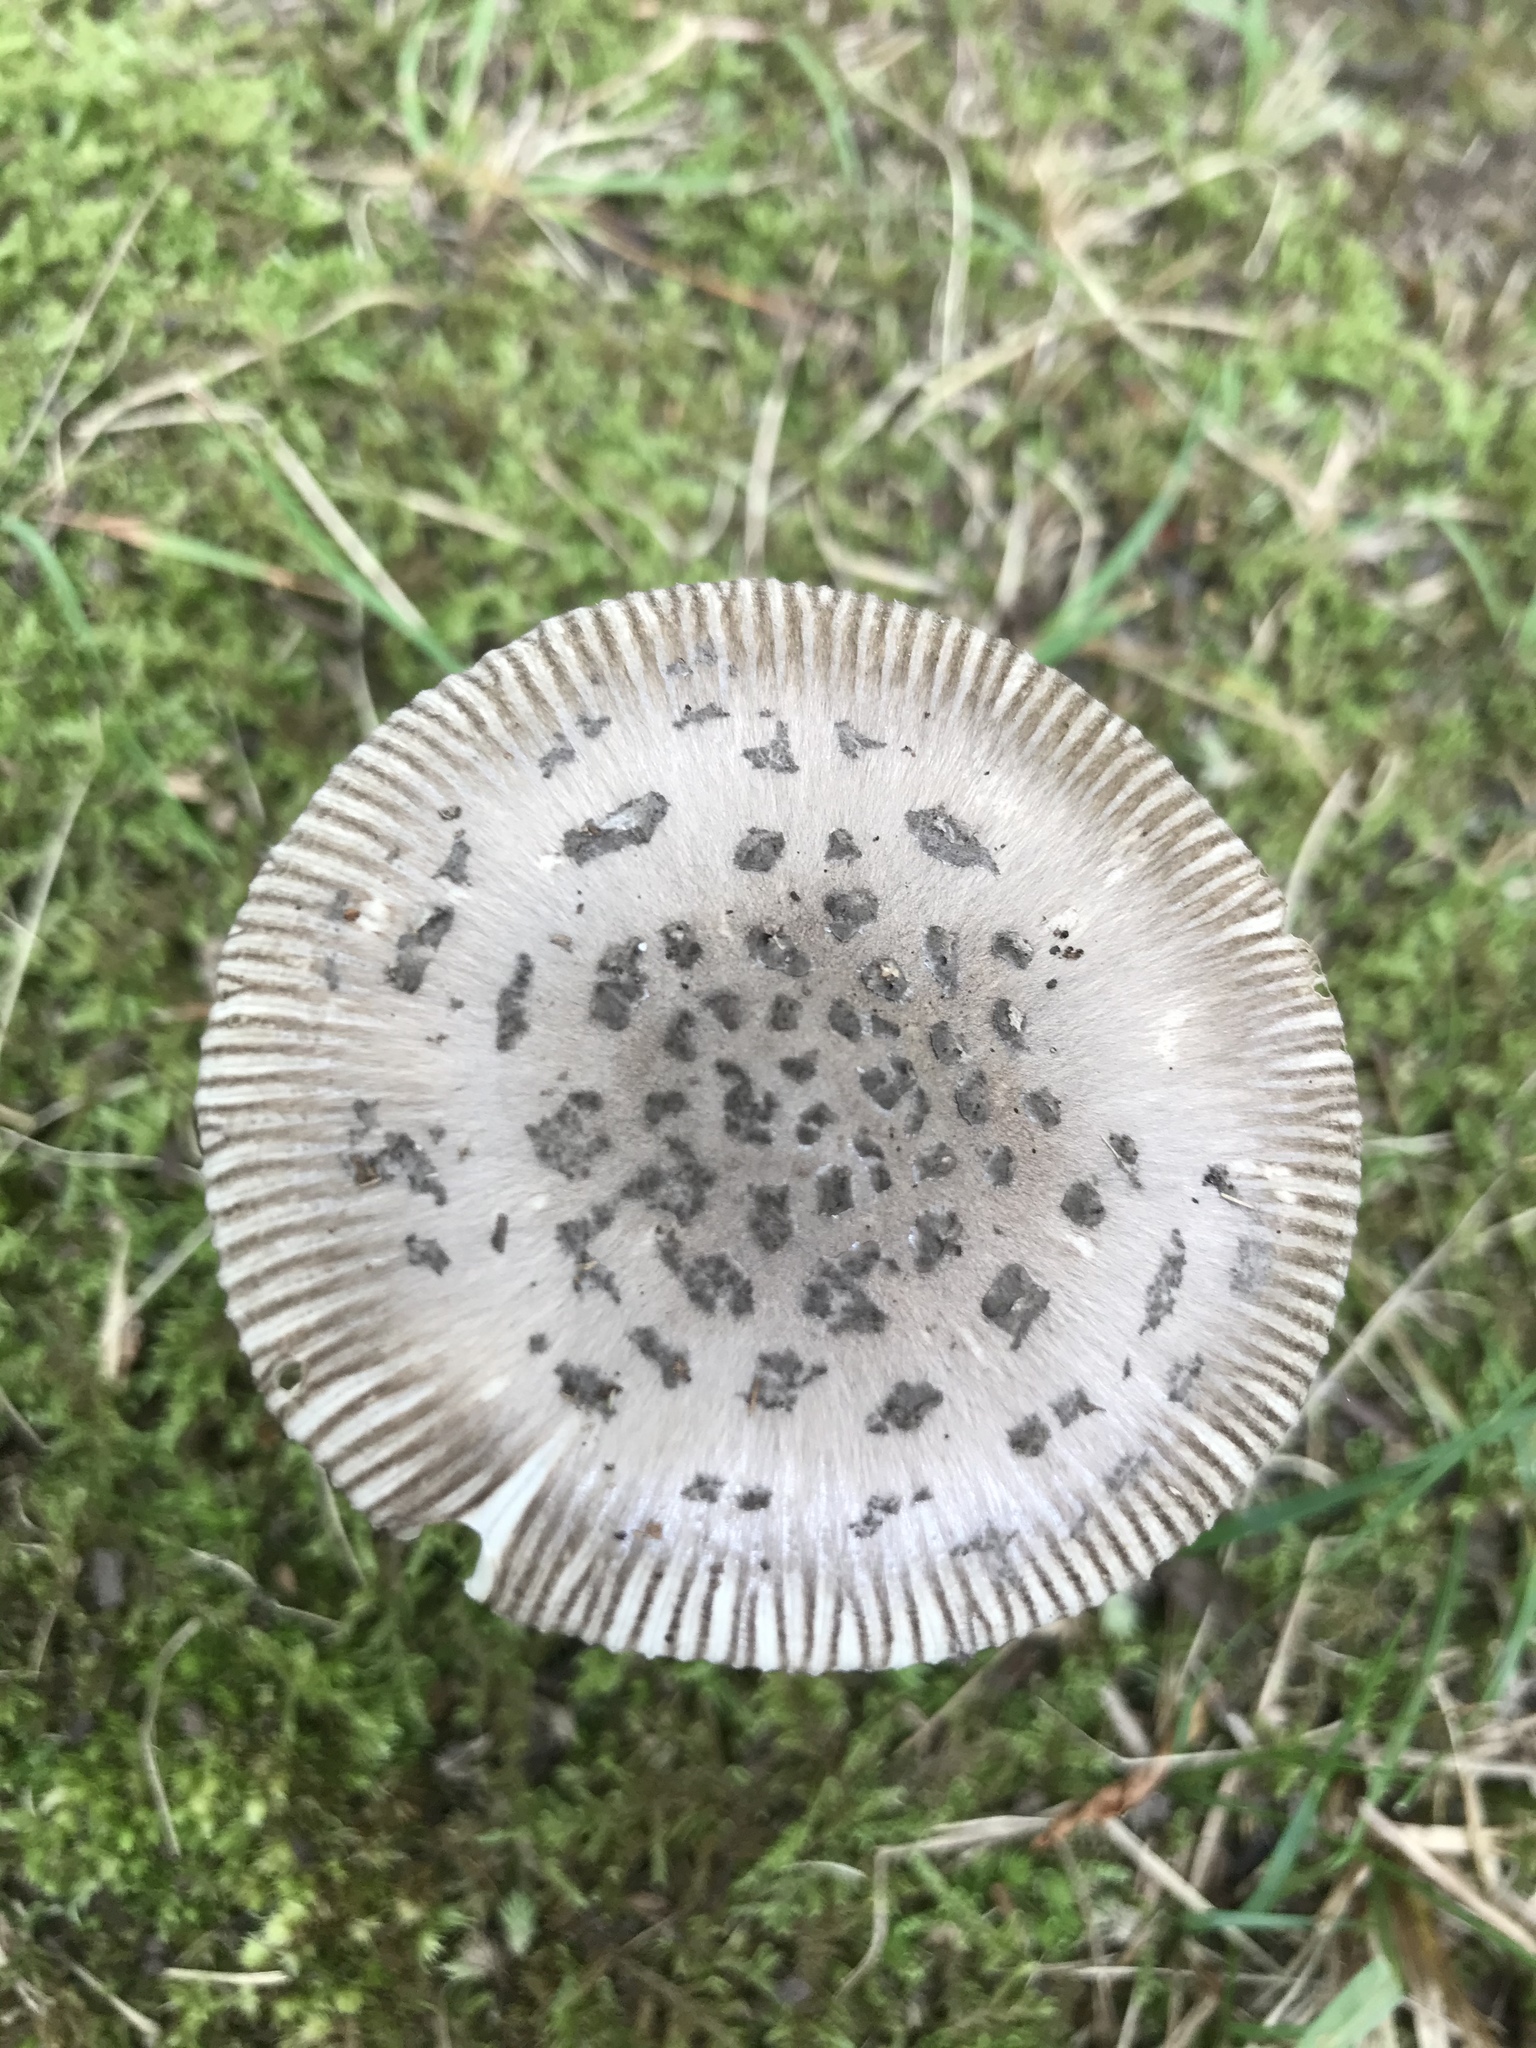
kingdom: Fungi
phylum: Basidiomycota
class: Agaricomycetes
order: Agaricales
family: Amanitaceae
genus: Amanita
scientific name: Amanita rhacopus
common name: Shaggy legged ringless amanita
